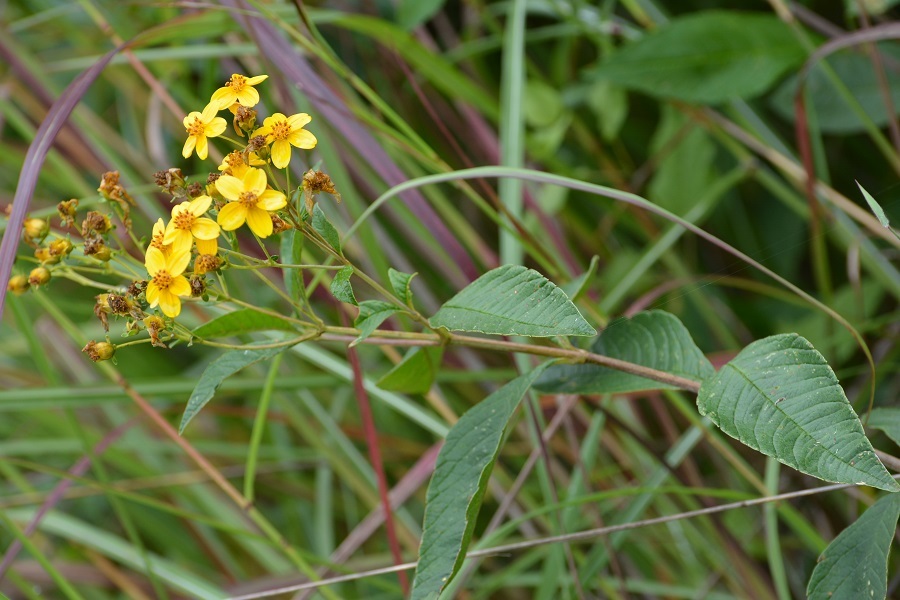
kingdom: Plantae
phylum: Tracheophyta
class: Magnoliopsida
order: Asterales
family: Asteraceae
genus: Electranthera
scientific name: Electranthera mutica
